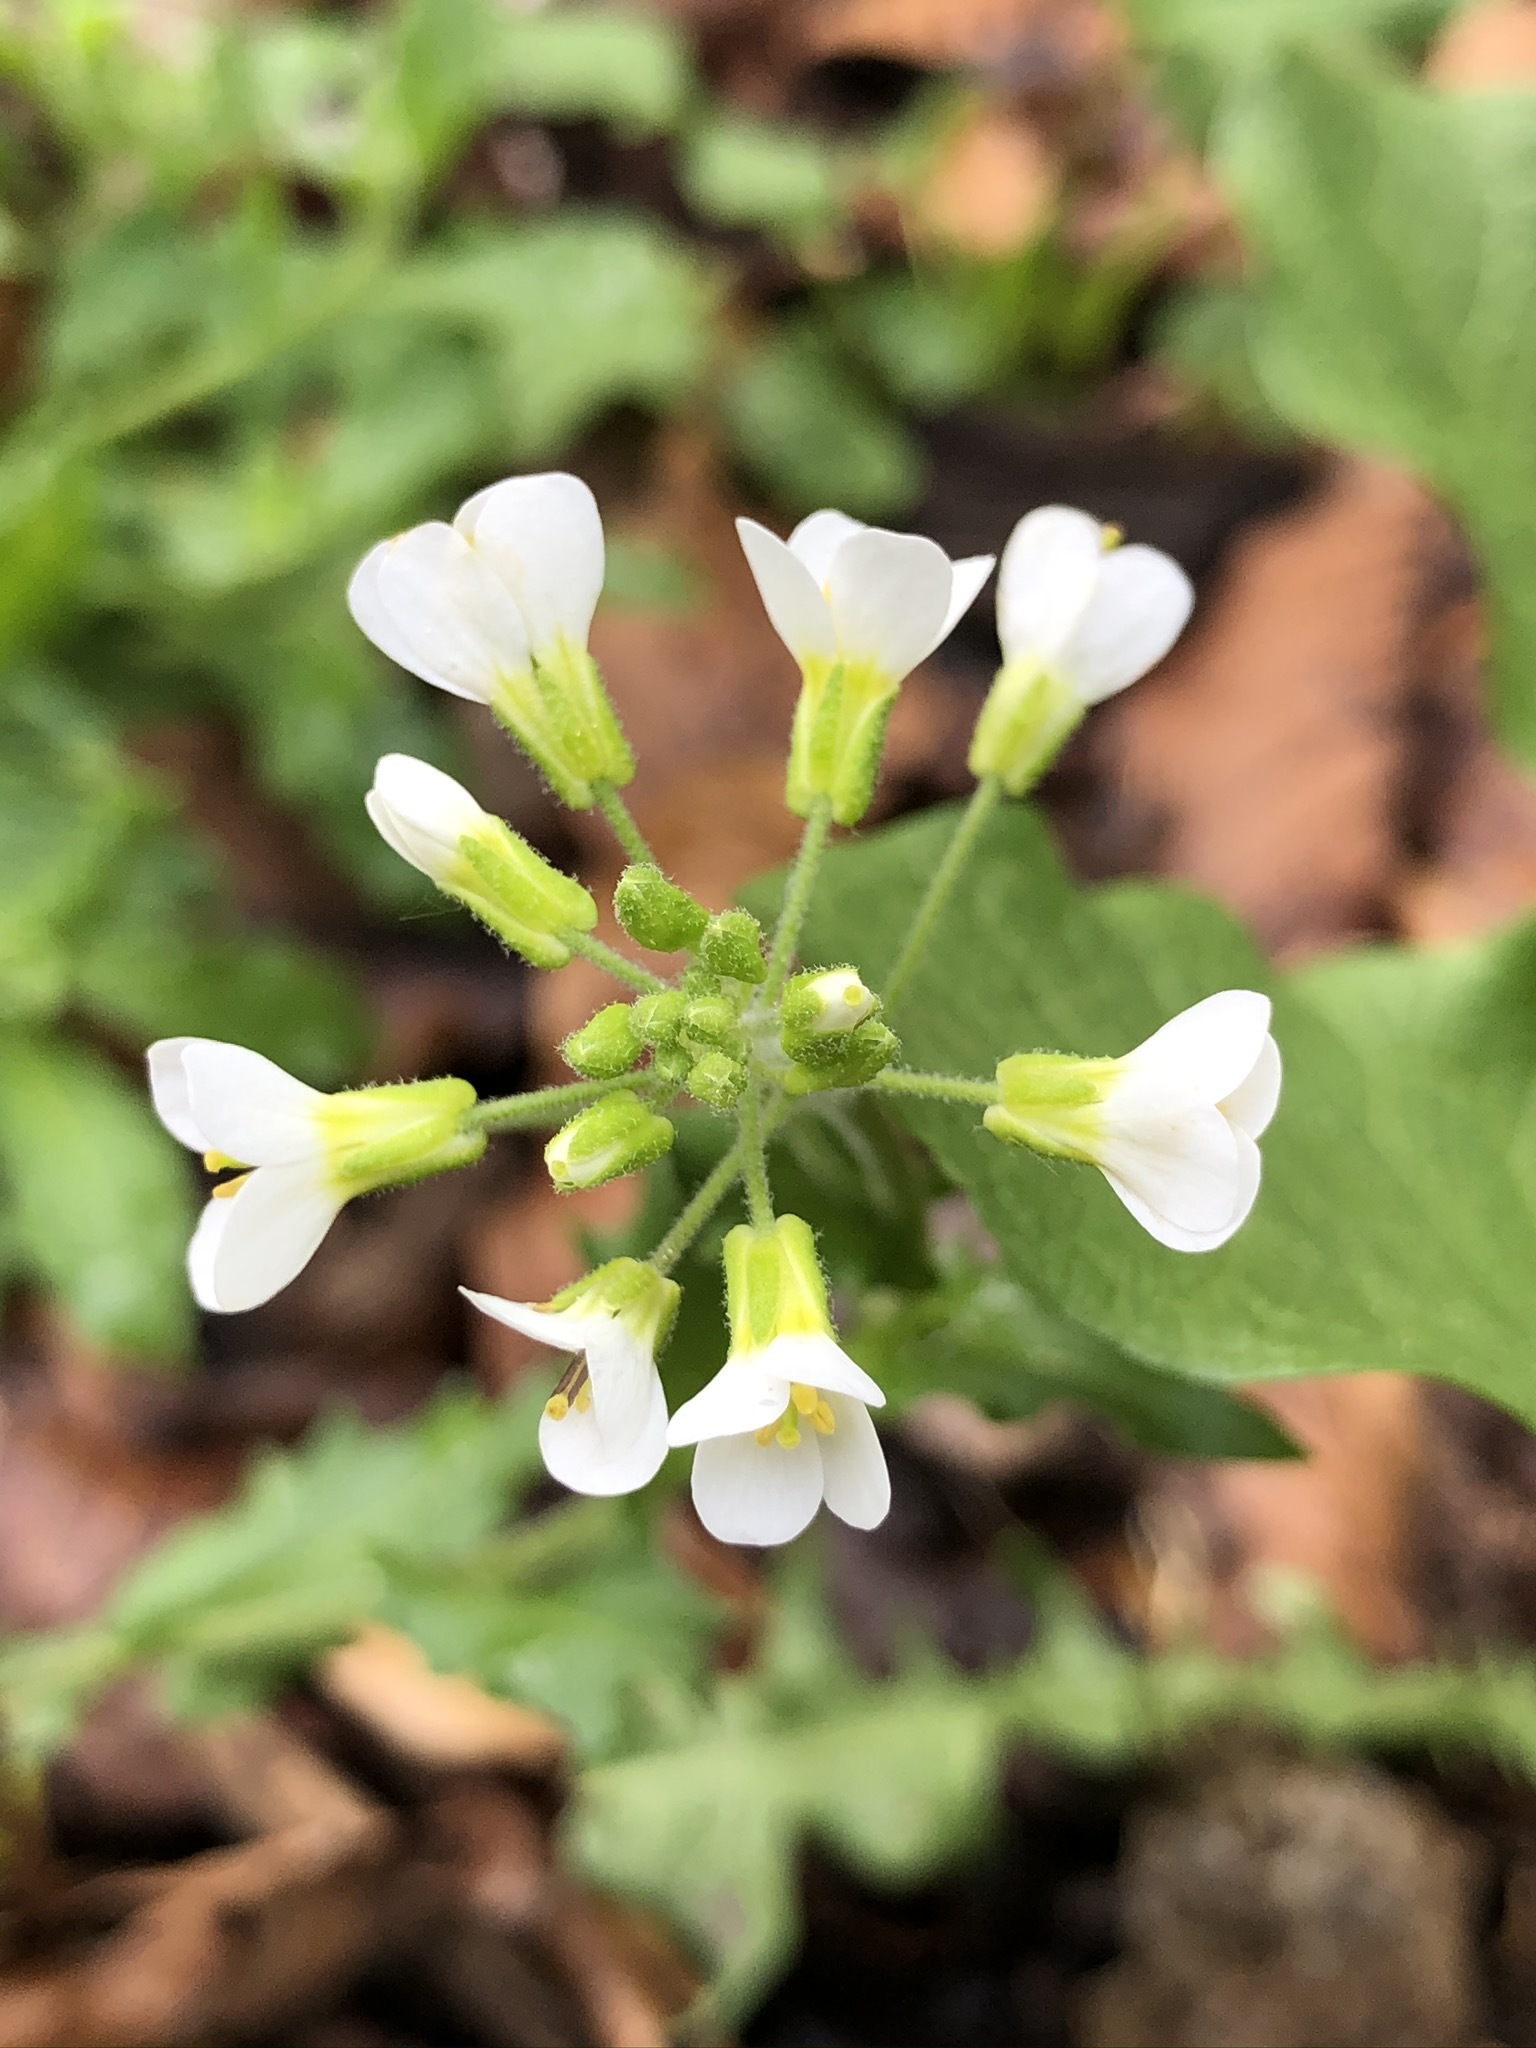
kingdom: Plantae
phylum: Tracheophyta
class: Magnoliopsida
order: Brassicales
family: Brassicaceae
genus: Arabis
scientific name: Arabis alpina
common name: Alpine rock-cress
